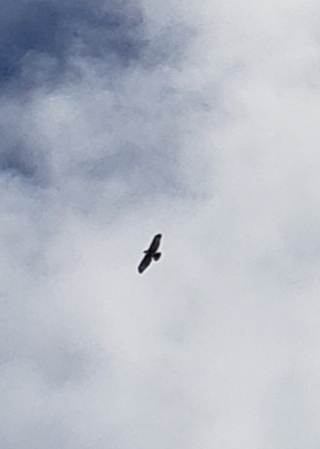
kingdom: Animalia
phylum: Chordata
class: Aves
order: Accipitriformes
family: Accipitridae
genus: Buteo
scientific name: Buteo
